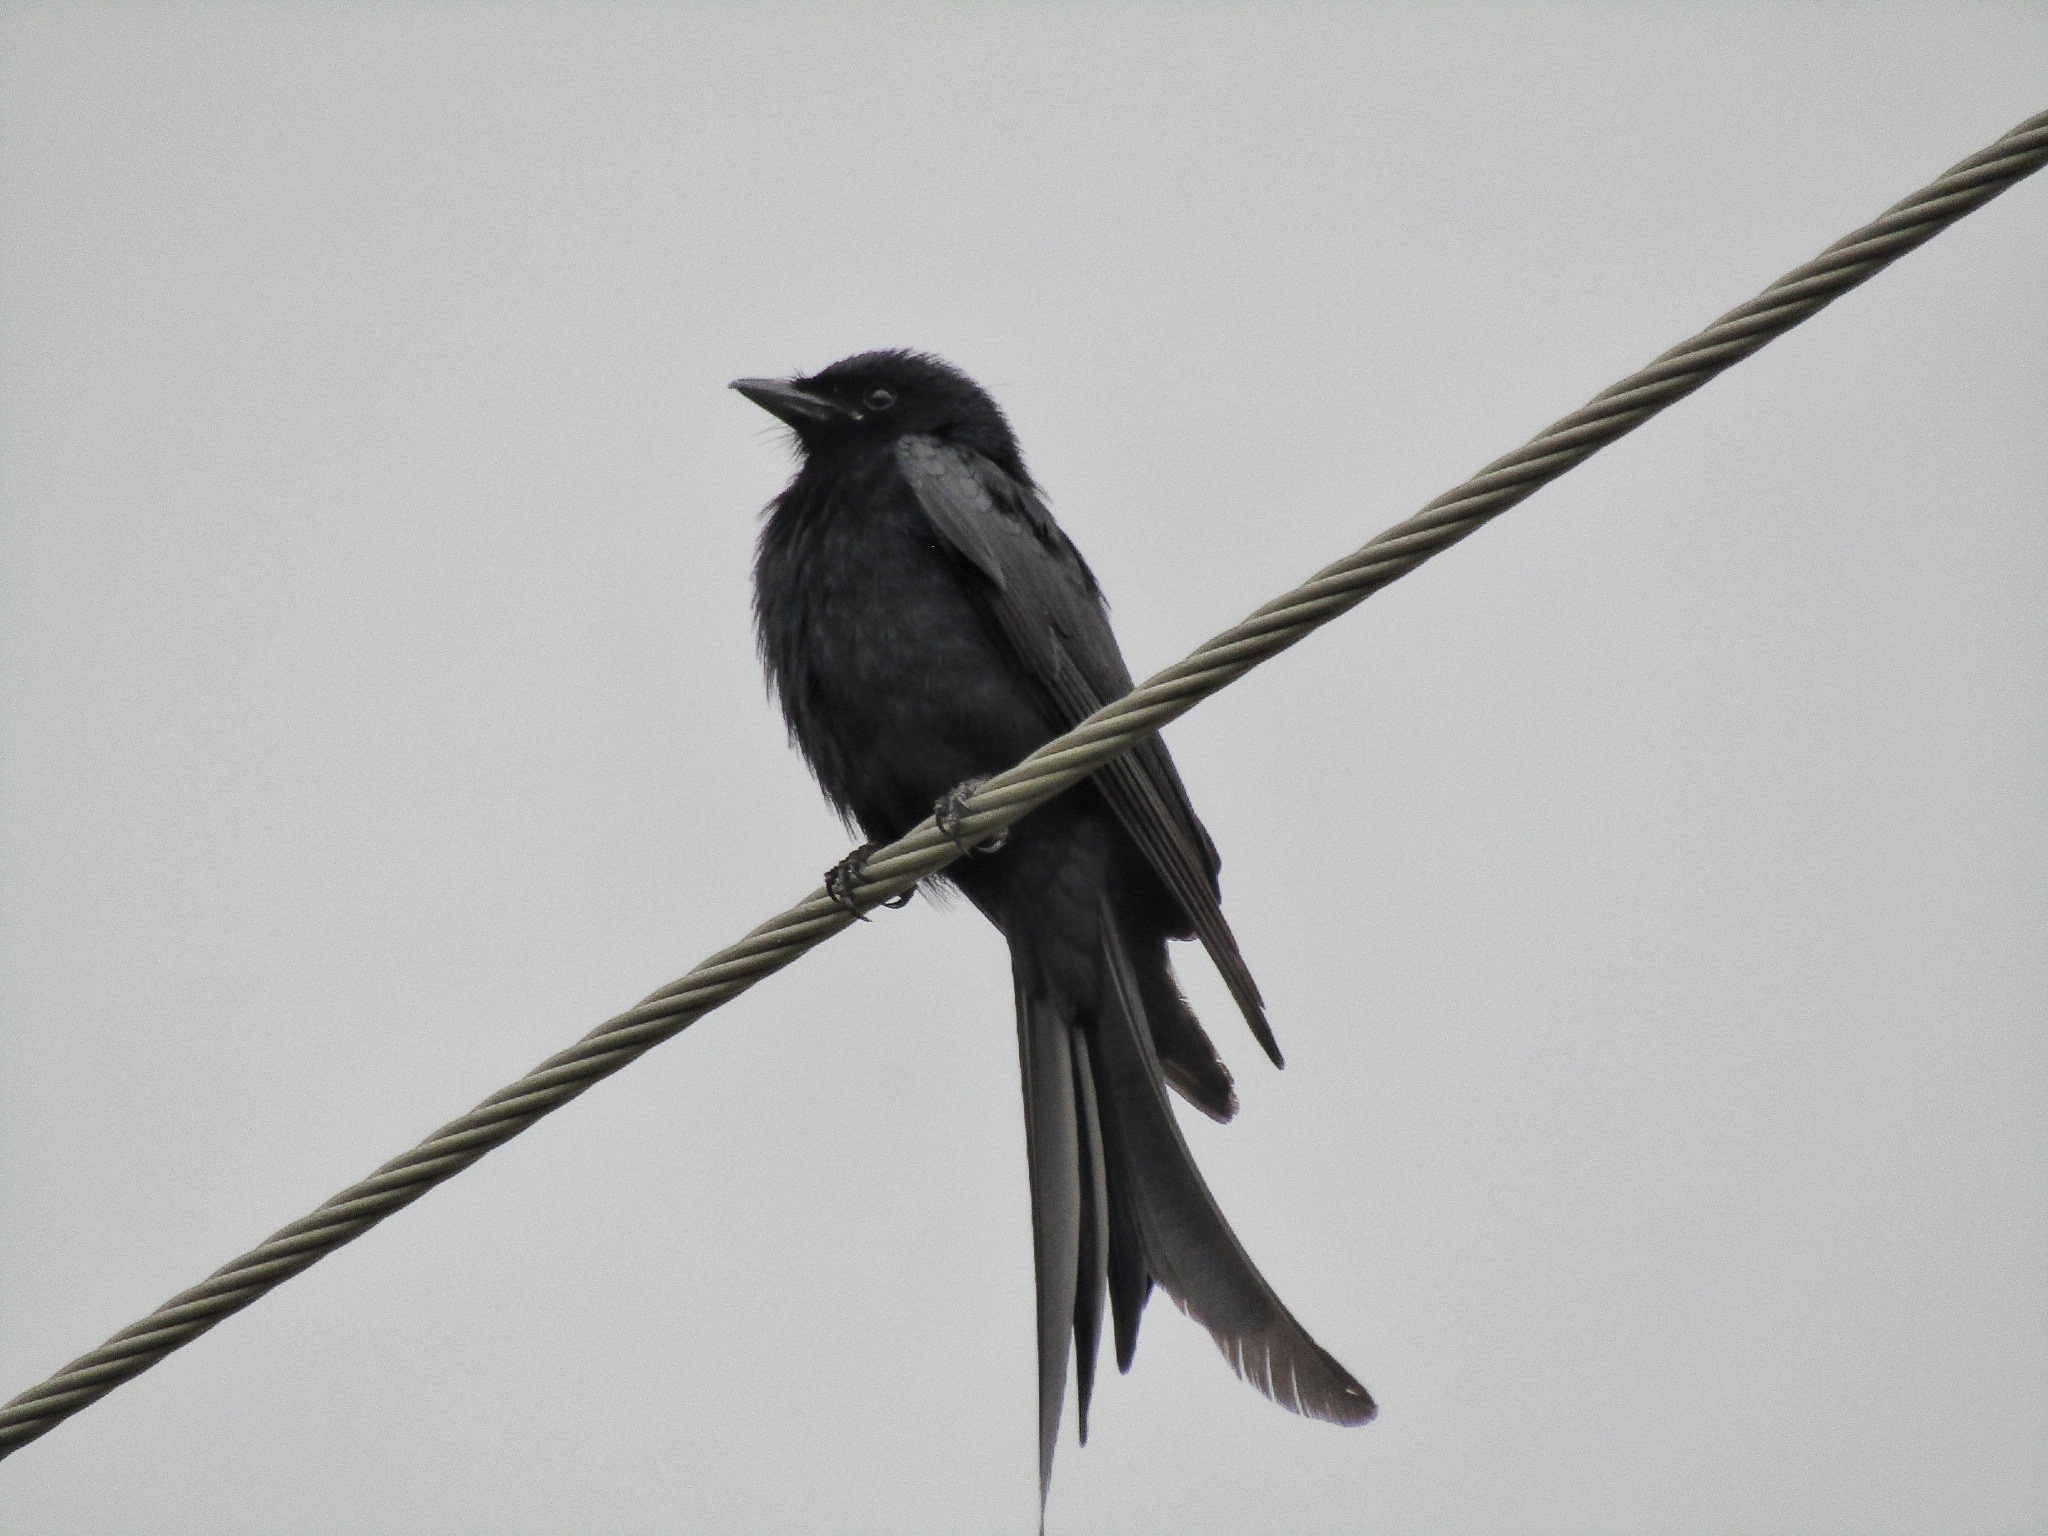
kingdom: Animalia
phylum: Chordata
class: Aves
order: Passeriformes
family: Dicruridae
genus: Dicrurus
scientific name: Dicrurus macrocercus
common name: Black drongo
